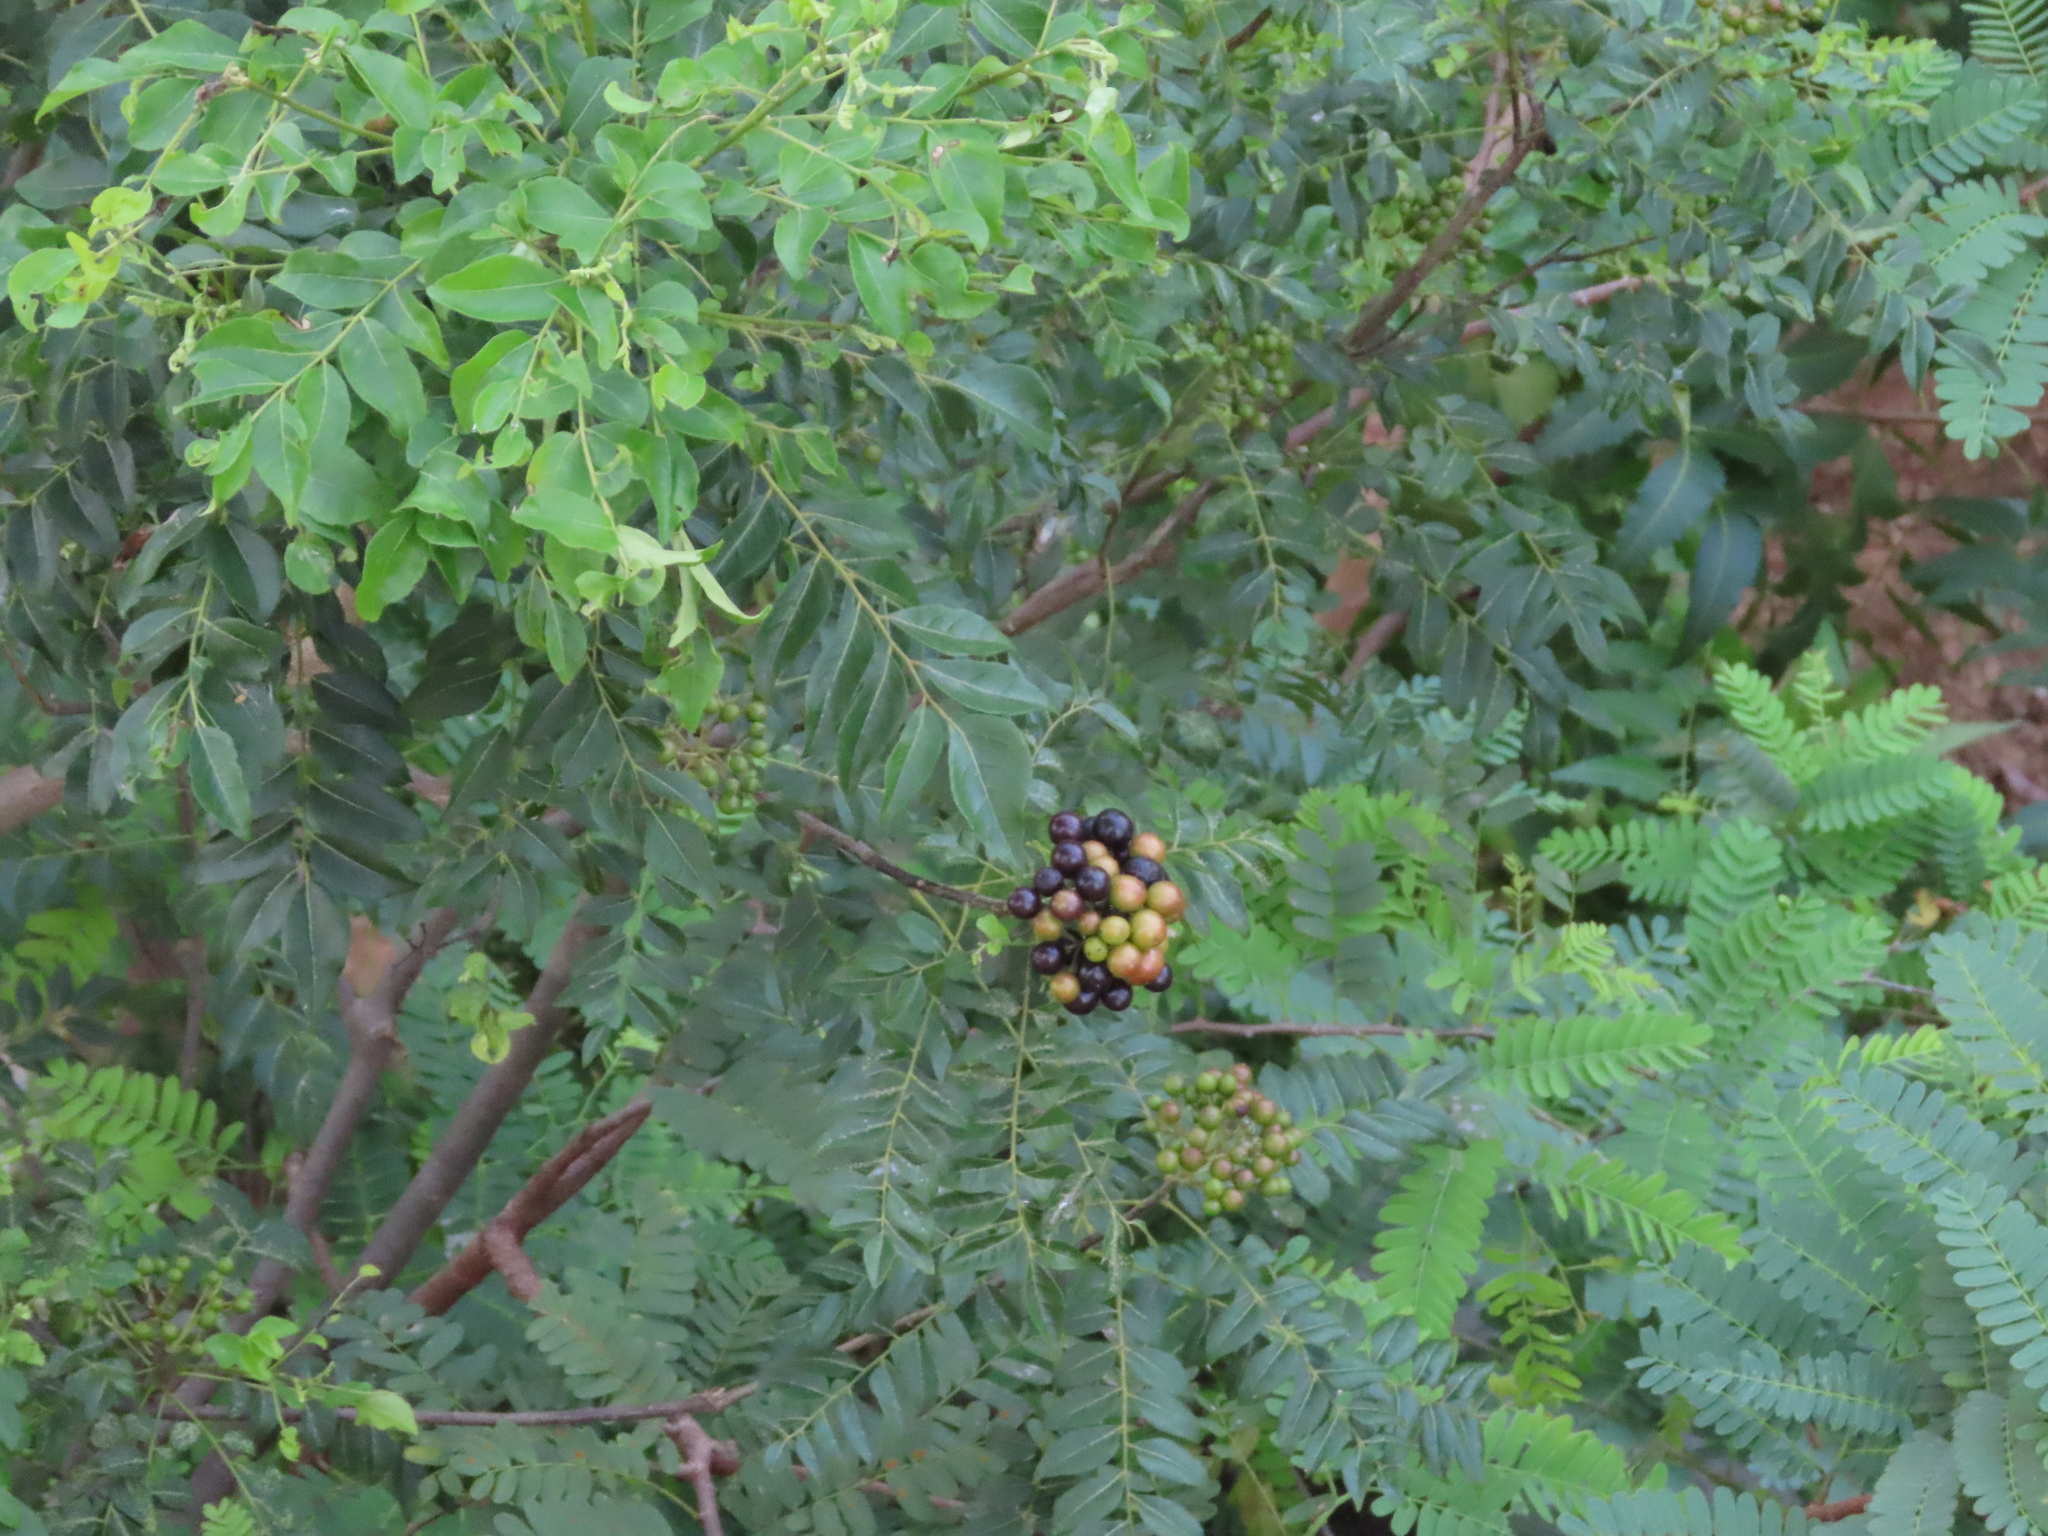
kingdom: Plantae
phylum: Tracheophyta
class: Magnoliopsida
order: Sapindales
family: Rutaceae
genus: Murraya
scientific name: Murraya koenigii
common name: Curry-plant
